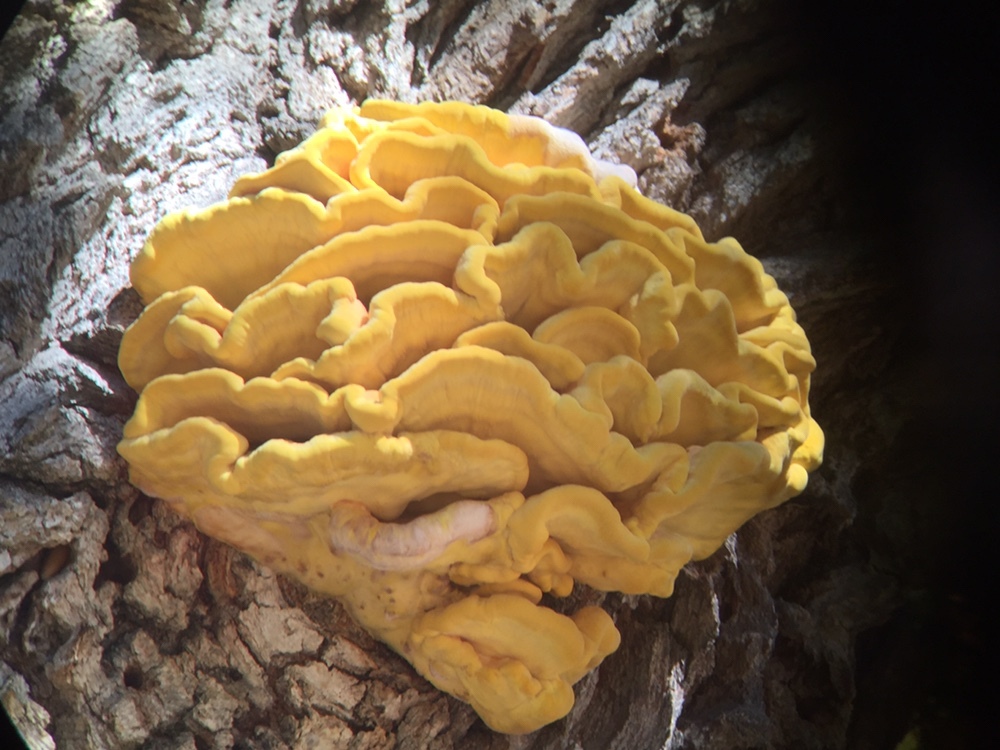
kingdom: Fungi
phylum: Basidiomycota
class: Agaricomycetes
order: Polyporales
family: Laetiporaceae
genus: Laetiporus
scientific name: Laetiporus gilbertsonii
